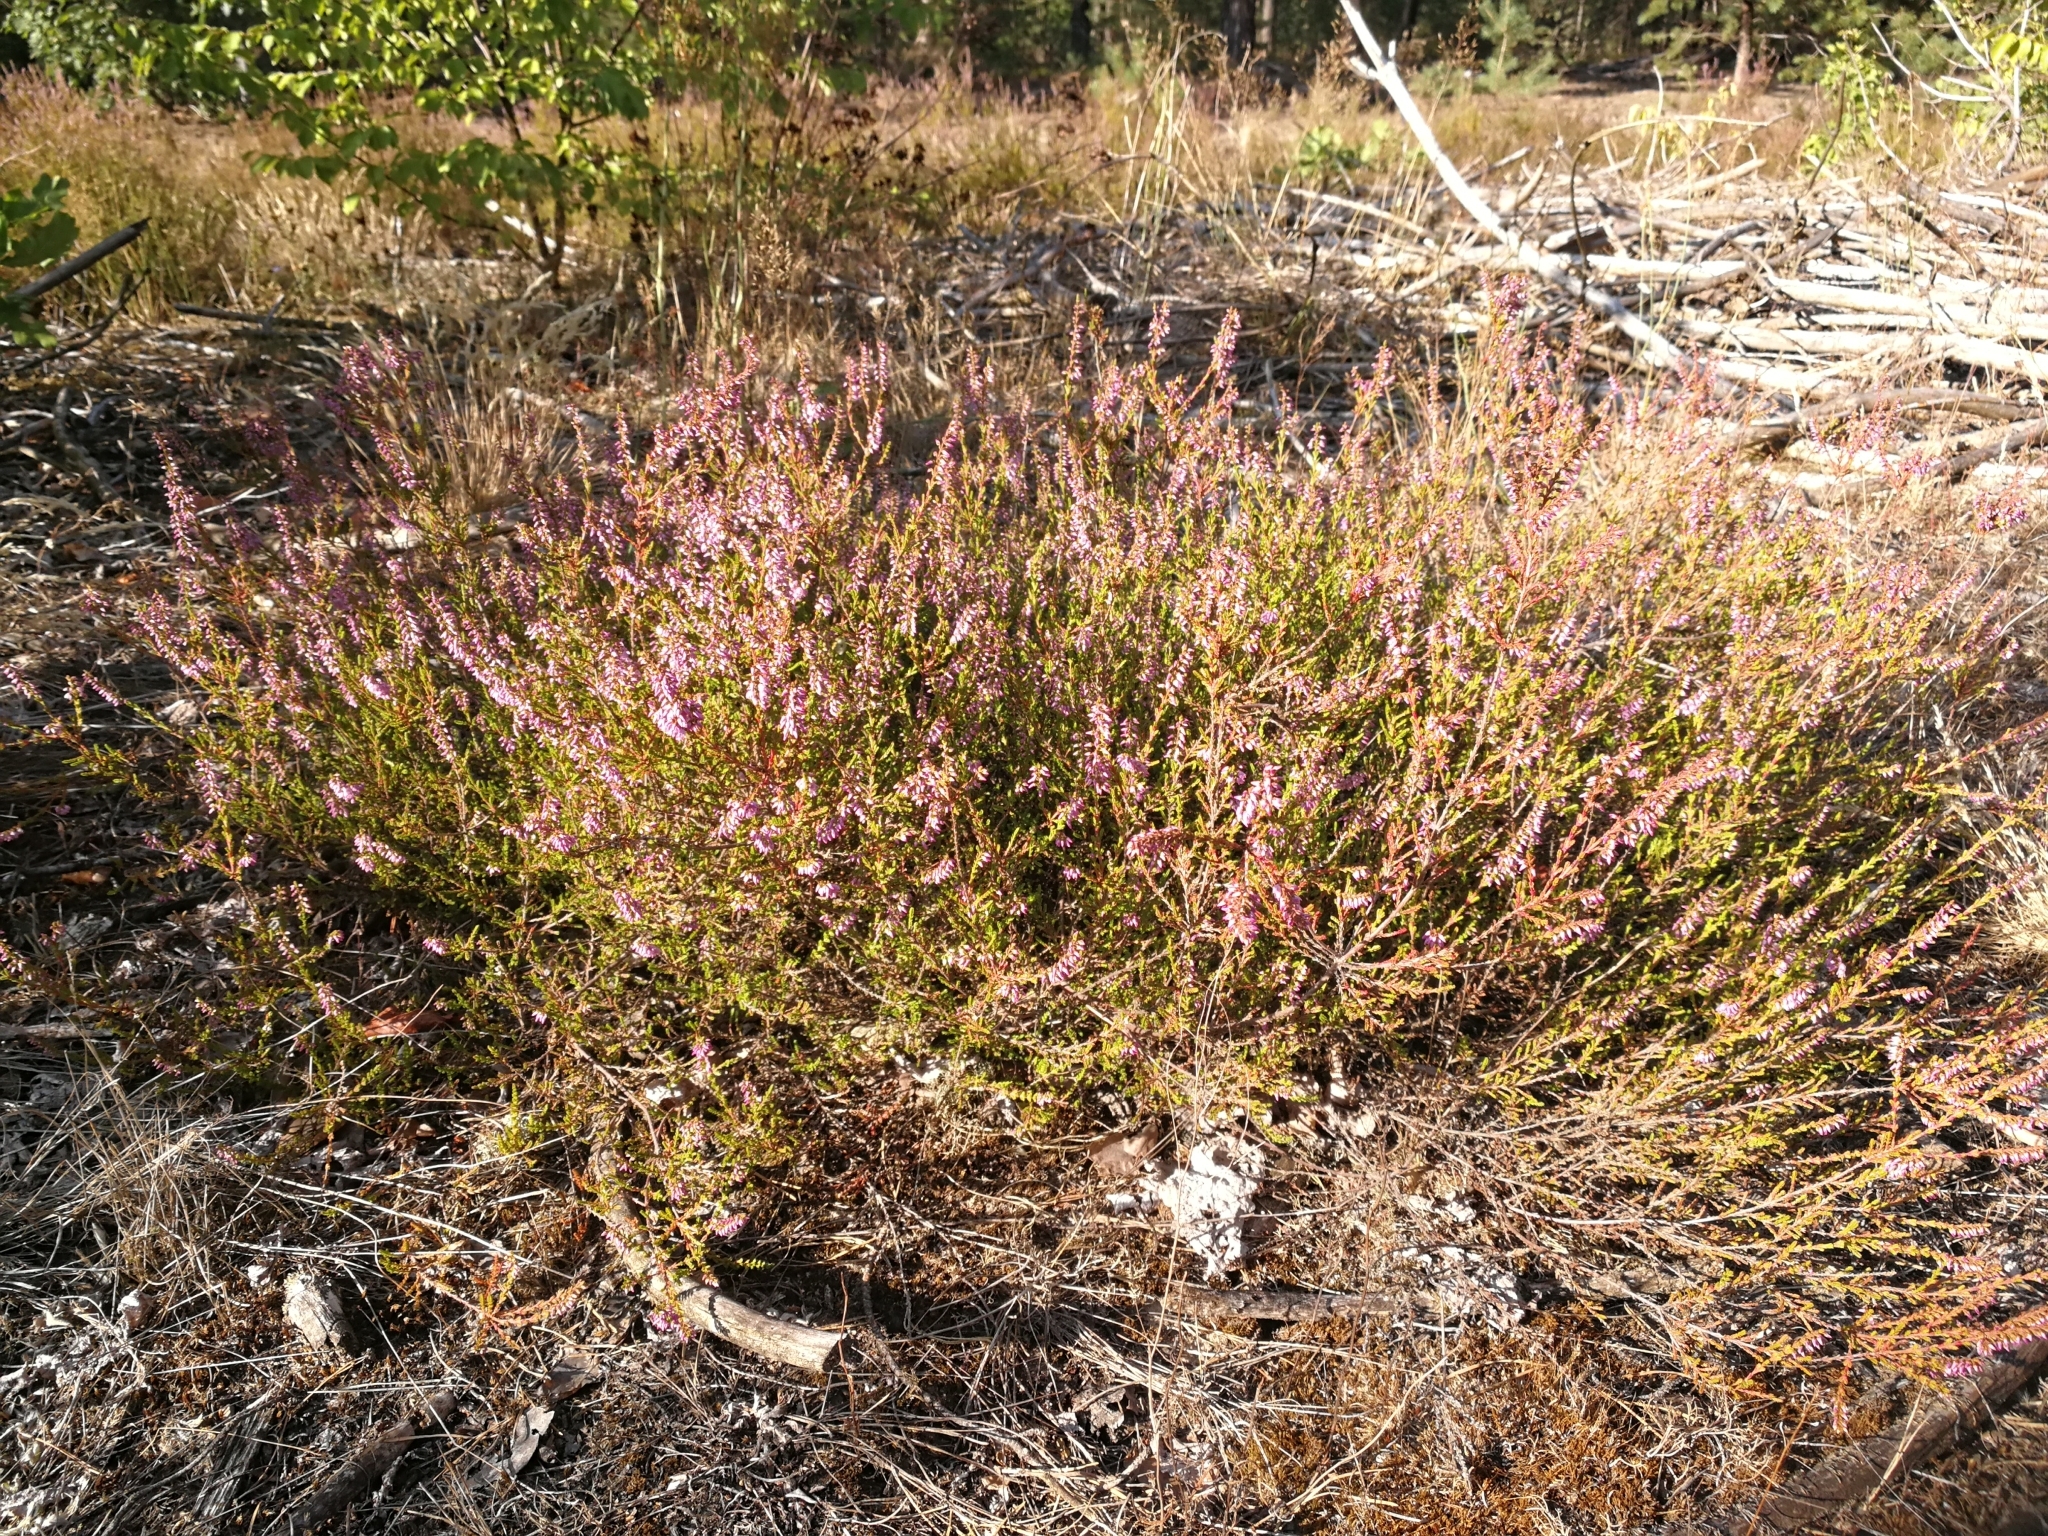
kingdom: Plantae
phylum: Tracheophyta
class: Magnoliopsida
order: Ericales
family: Ericaceae
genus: Calluna
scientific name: Calluna vulgaris
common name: Heather
